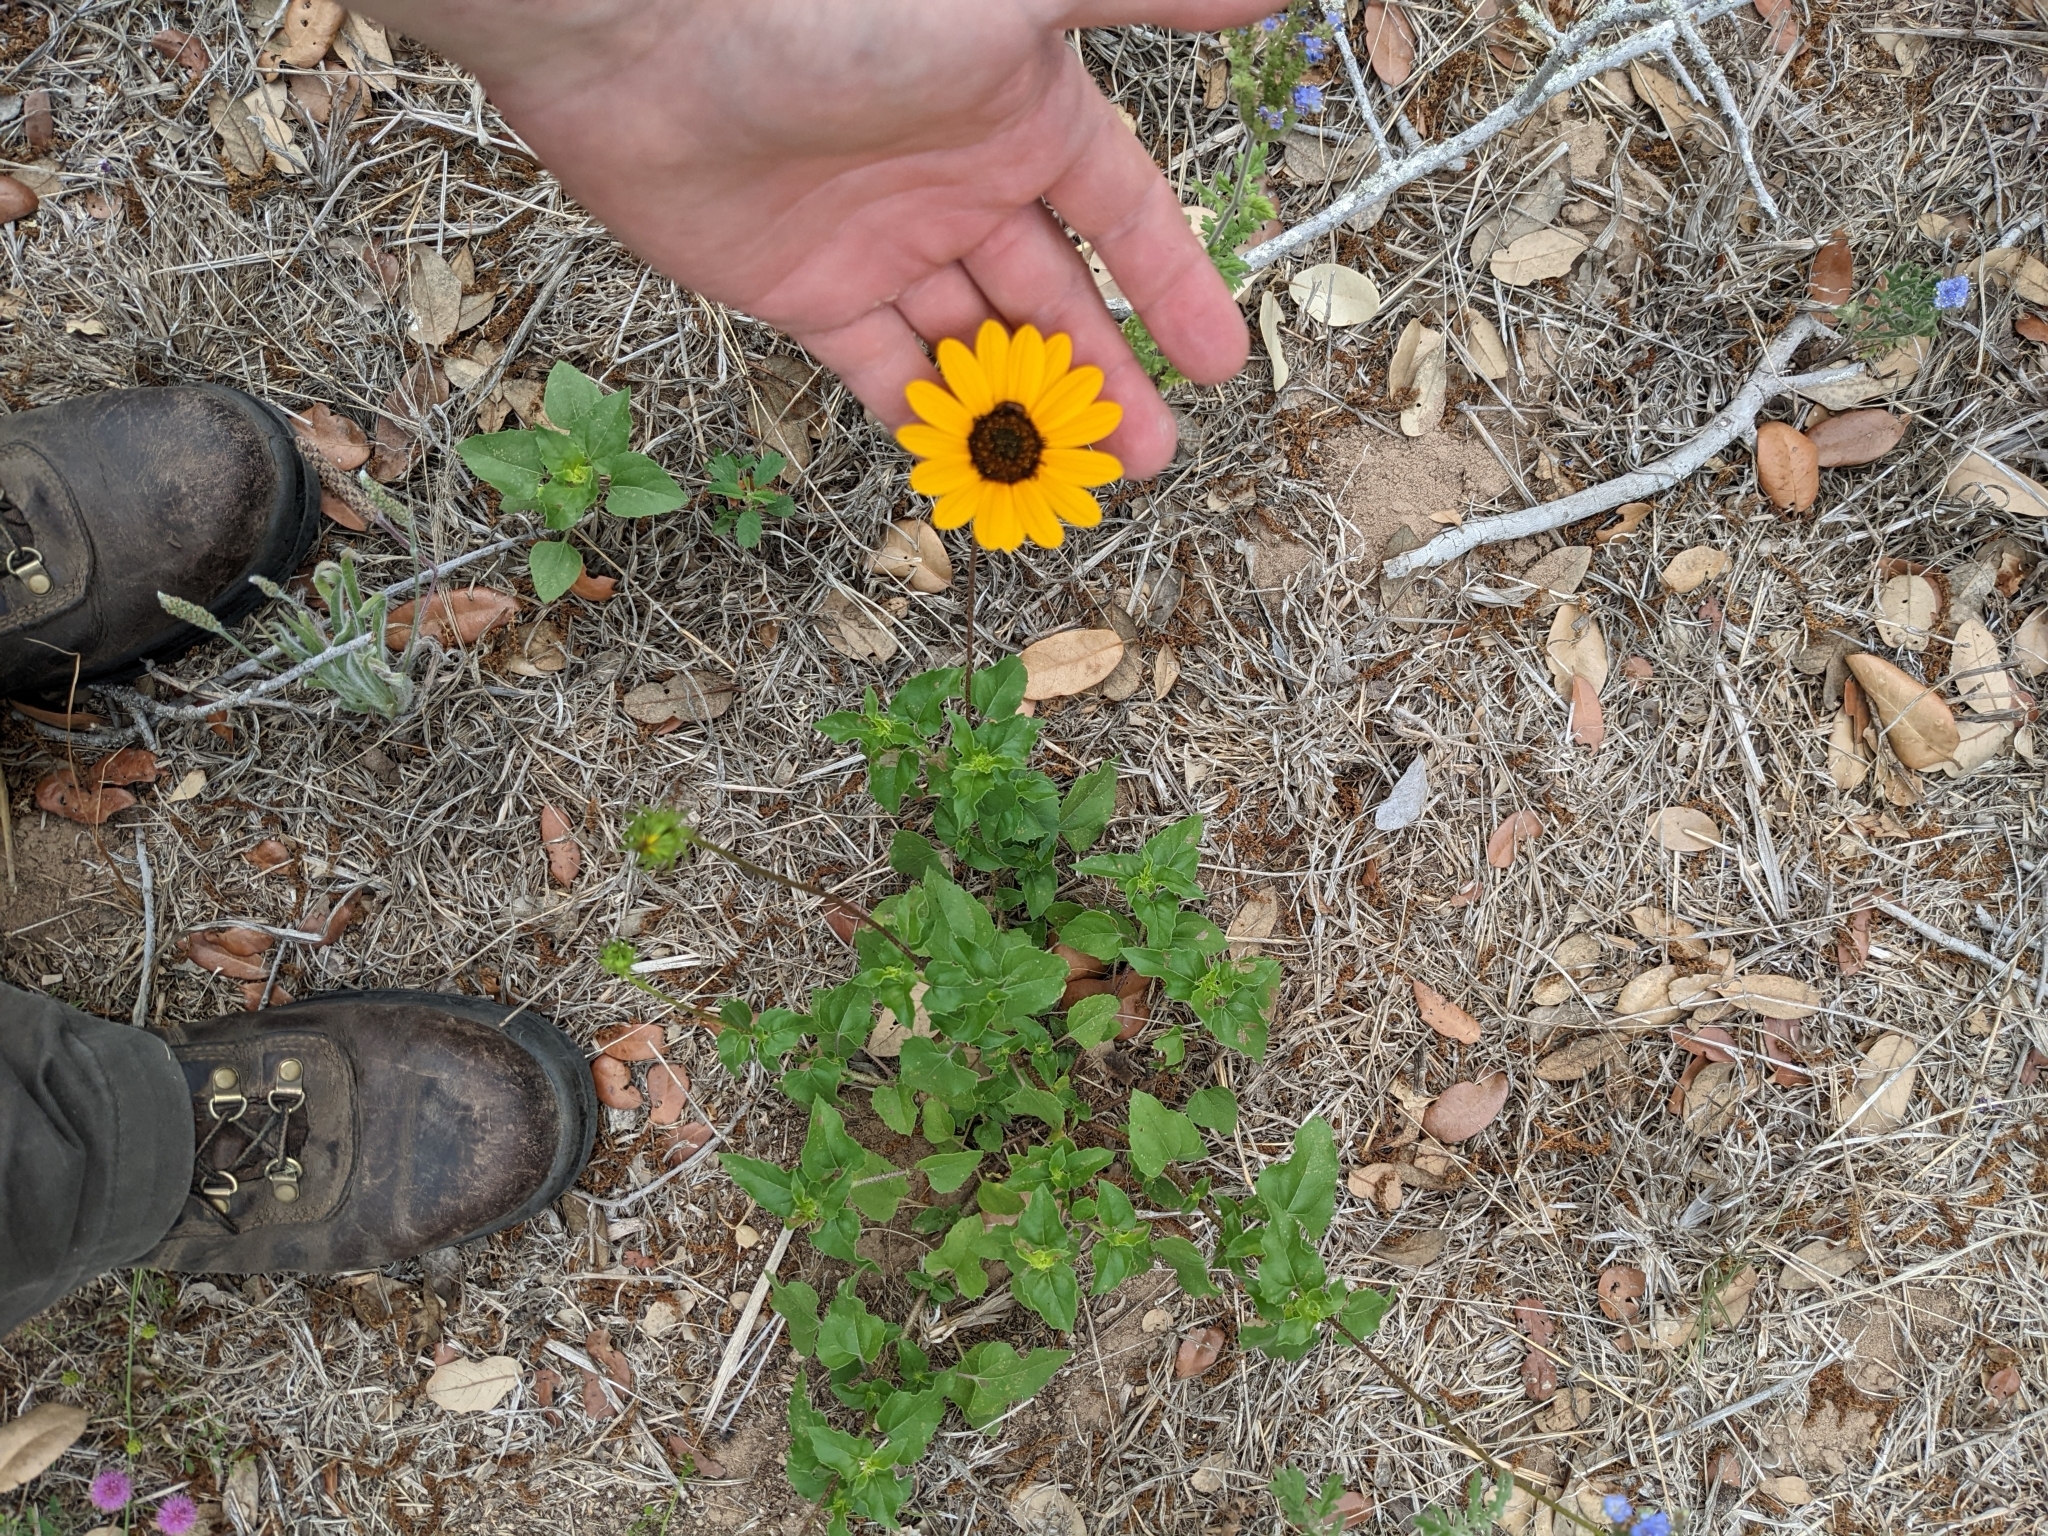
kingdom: Plantae
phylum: Tracheophyta
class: Magnoliopsida
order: Asterales
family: Asteraceae
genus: Helianthus
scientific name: Helianthus debilis
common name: Weak sunflower
